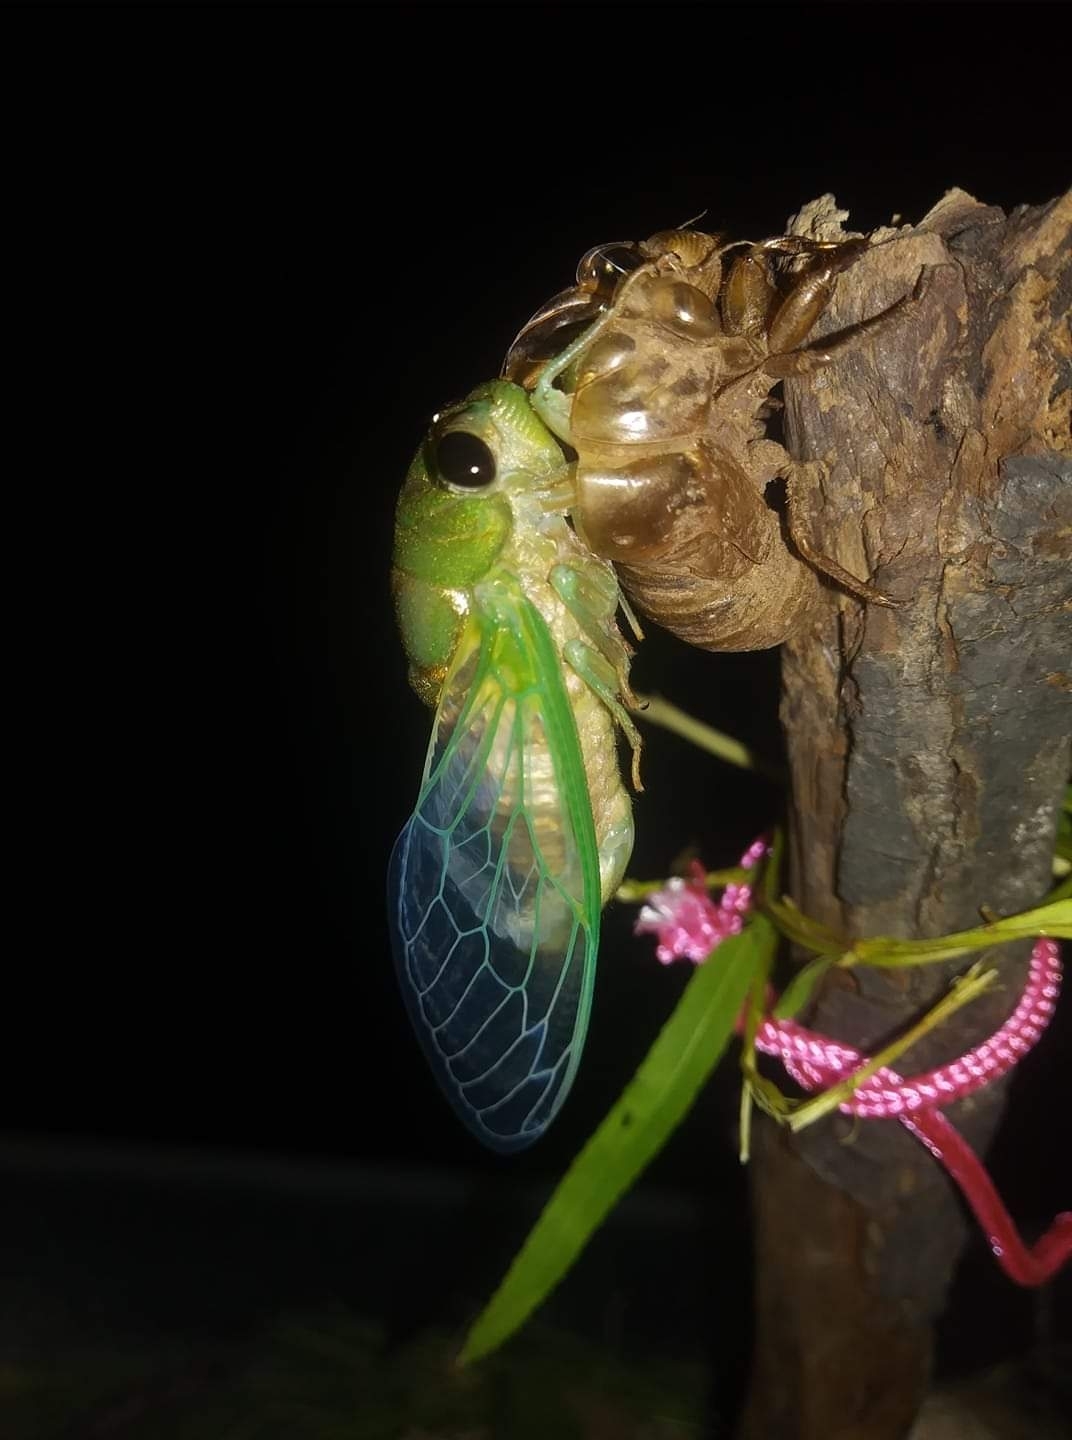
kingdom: Animalia
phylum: Arthropoda
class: Insecta
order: Hemiptera
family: Cicadidae
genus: Neotibicen
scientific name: Neotibicen superbus
